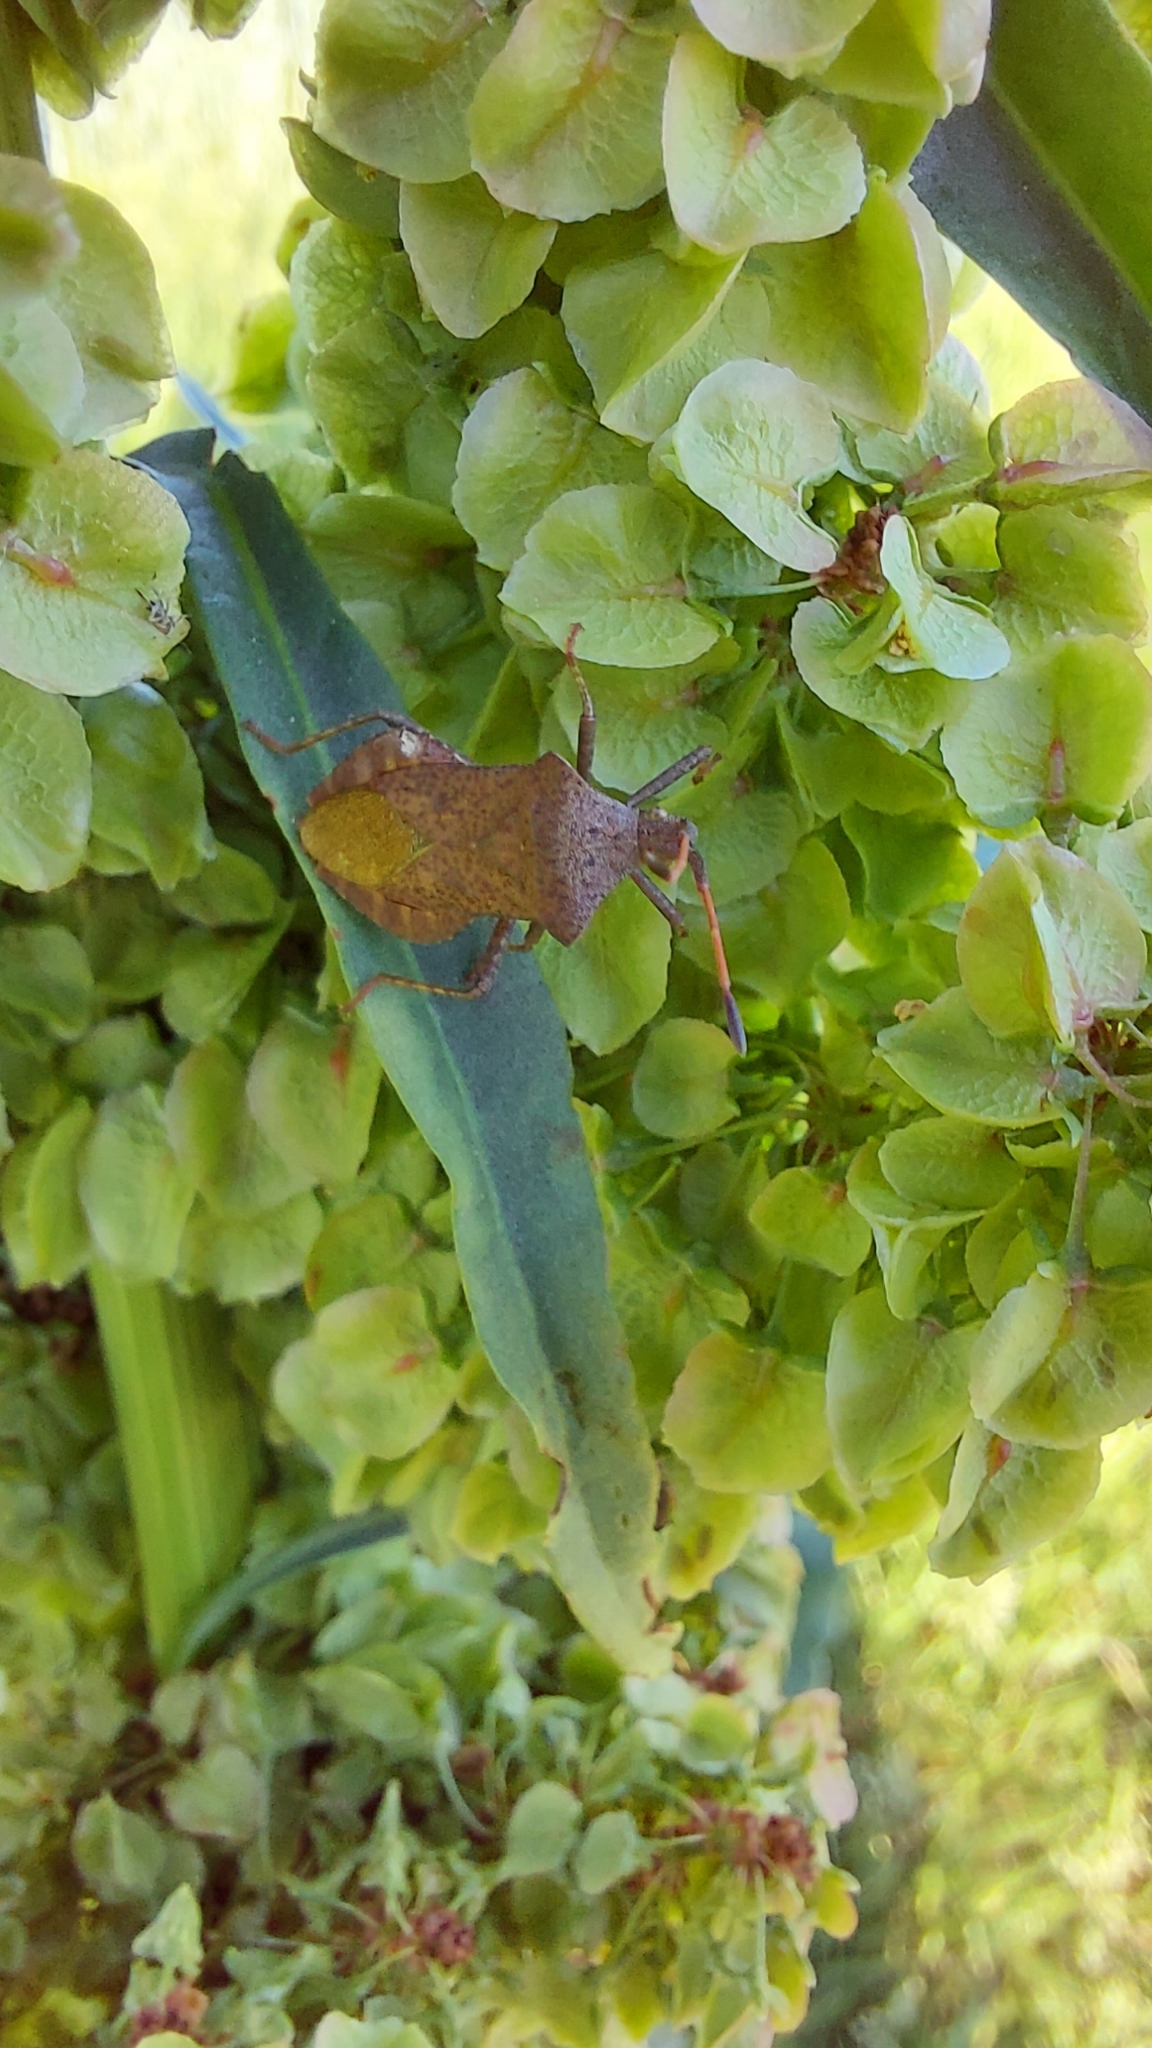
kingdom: Animalia
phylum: Arthropoda
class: Insecta
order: Hemiptera
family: Coreidae
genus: Coreus
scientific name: Coreus marginatus
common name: Dock bug
